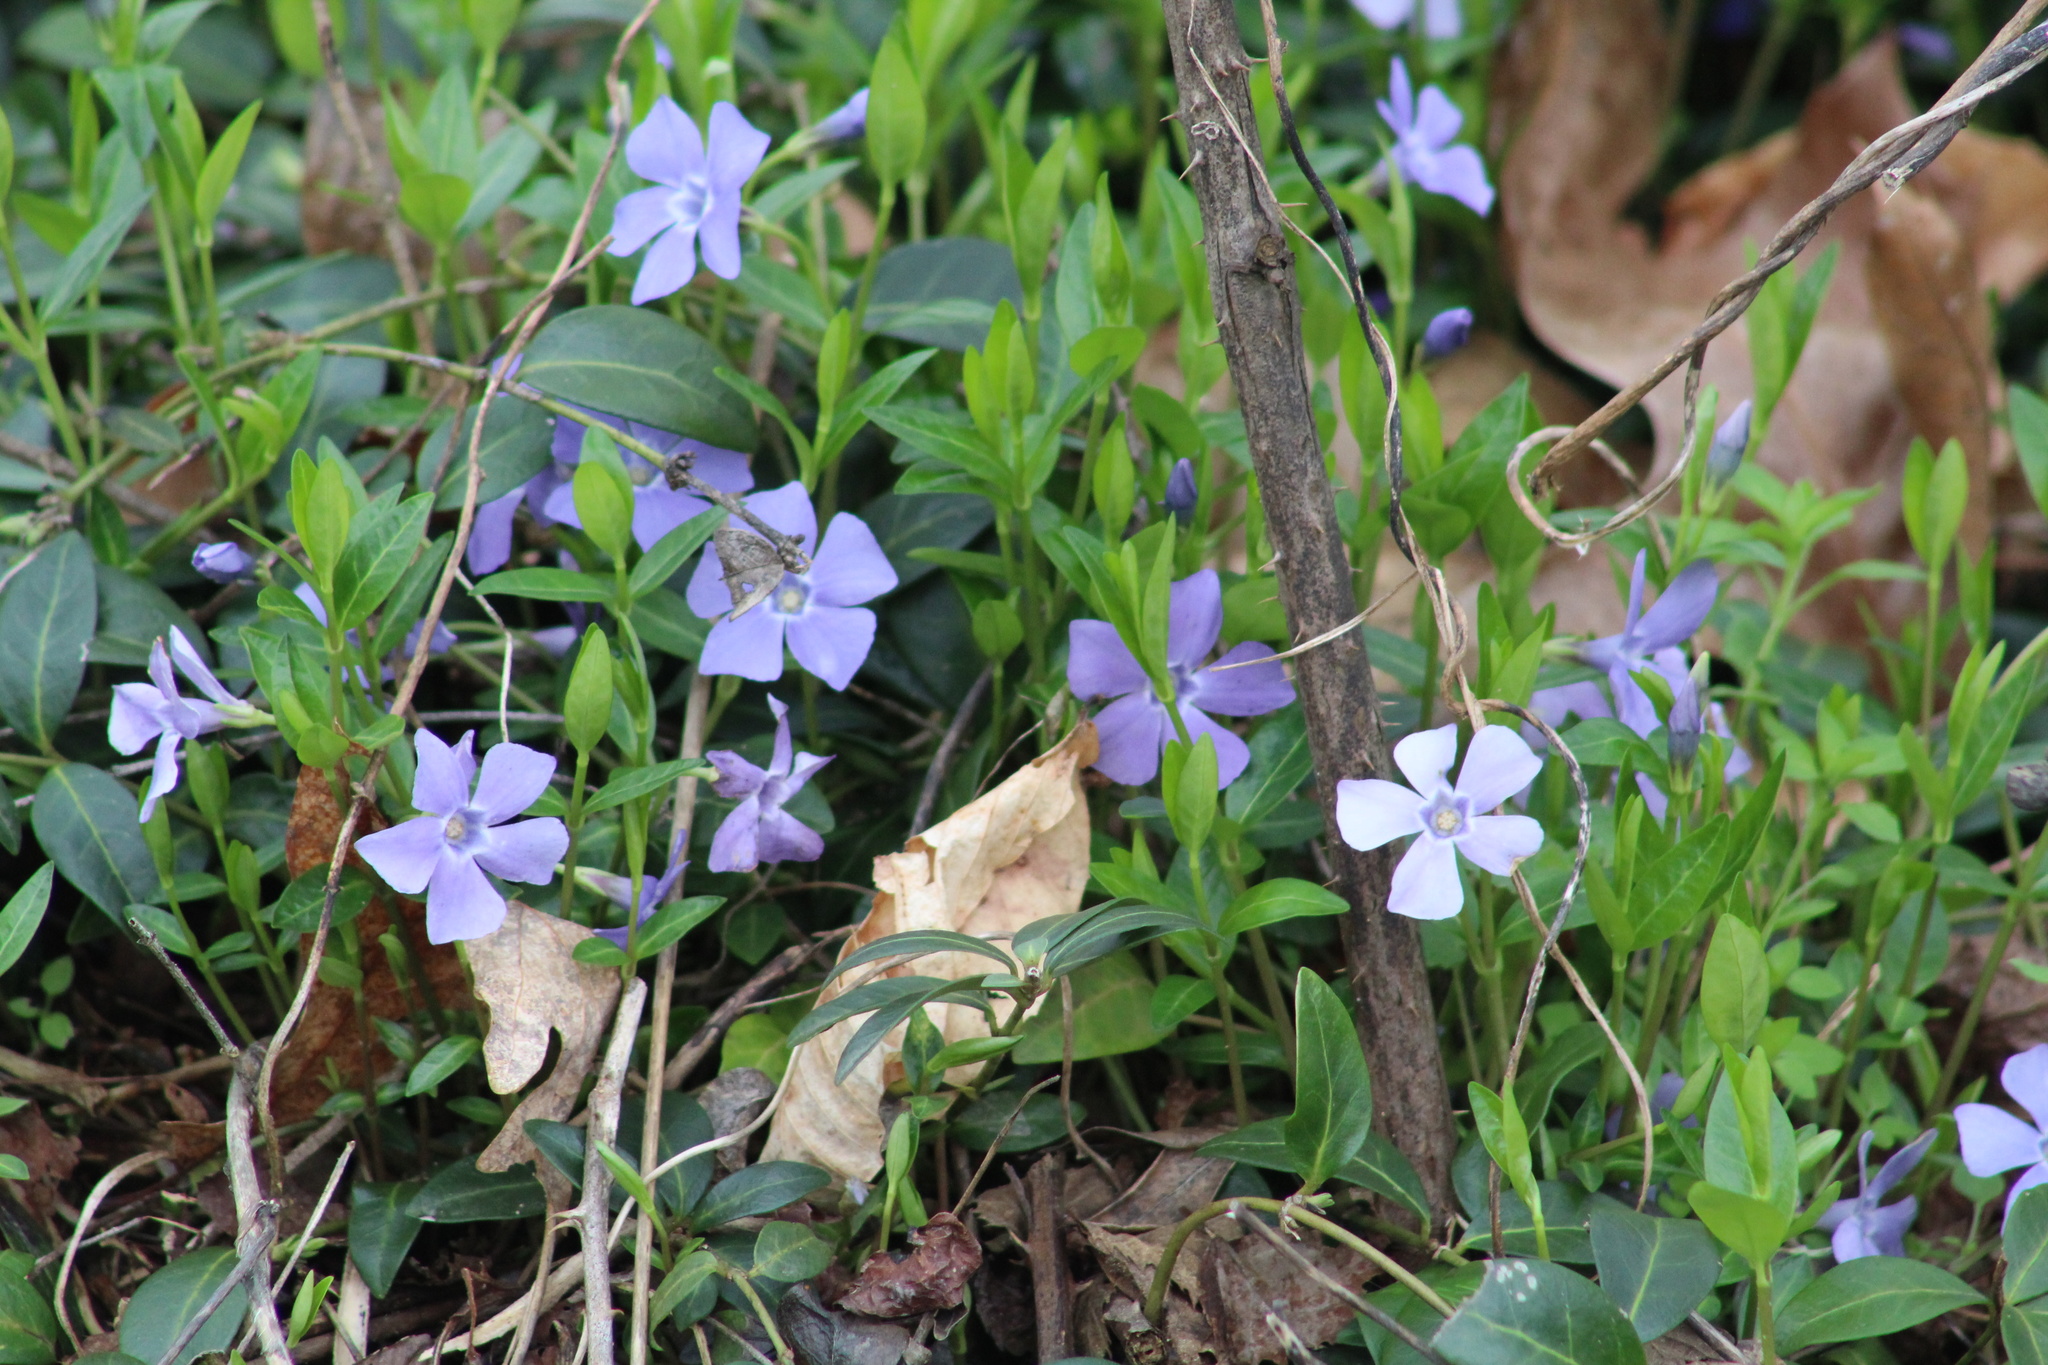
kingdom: Plantae
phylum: Tracheophyta
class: Magnoliopsida
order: Gentianales
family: Apocynaceae
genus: Vinca
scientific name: Vinca minor
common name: Lesser periwinkle
